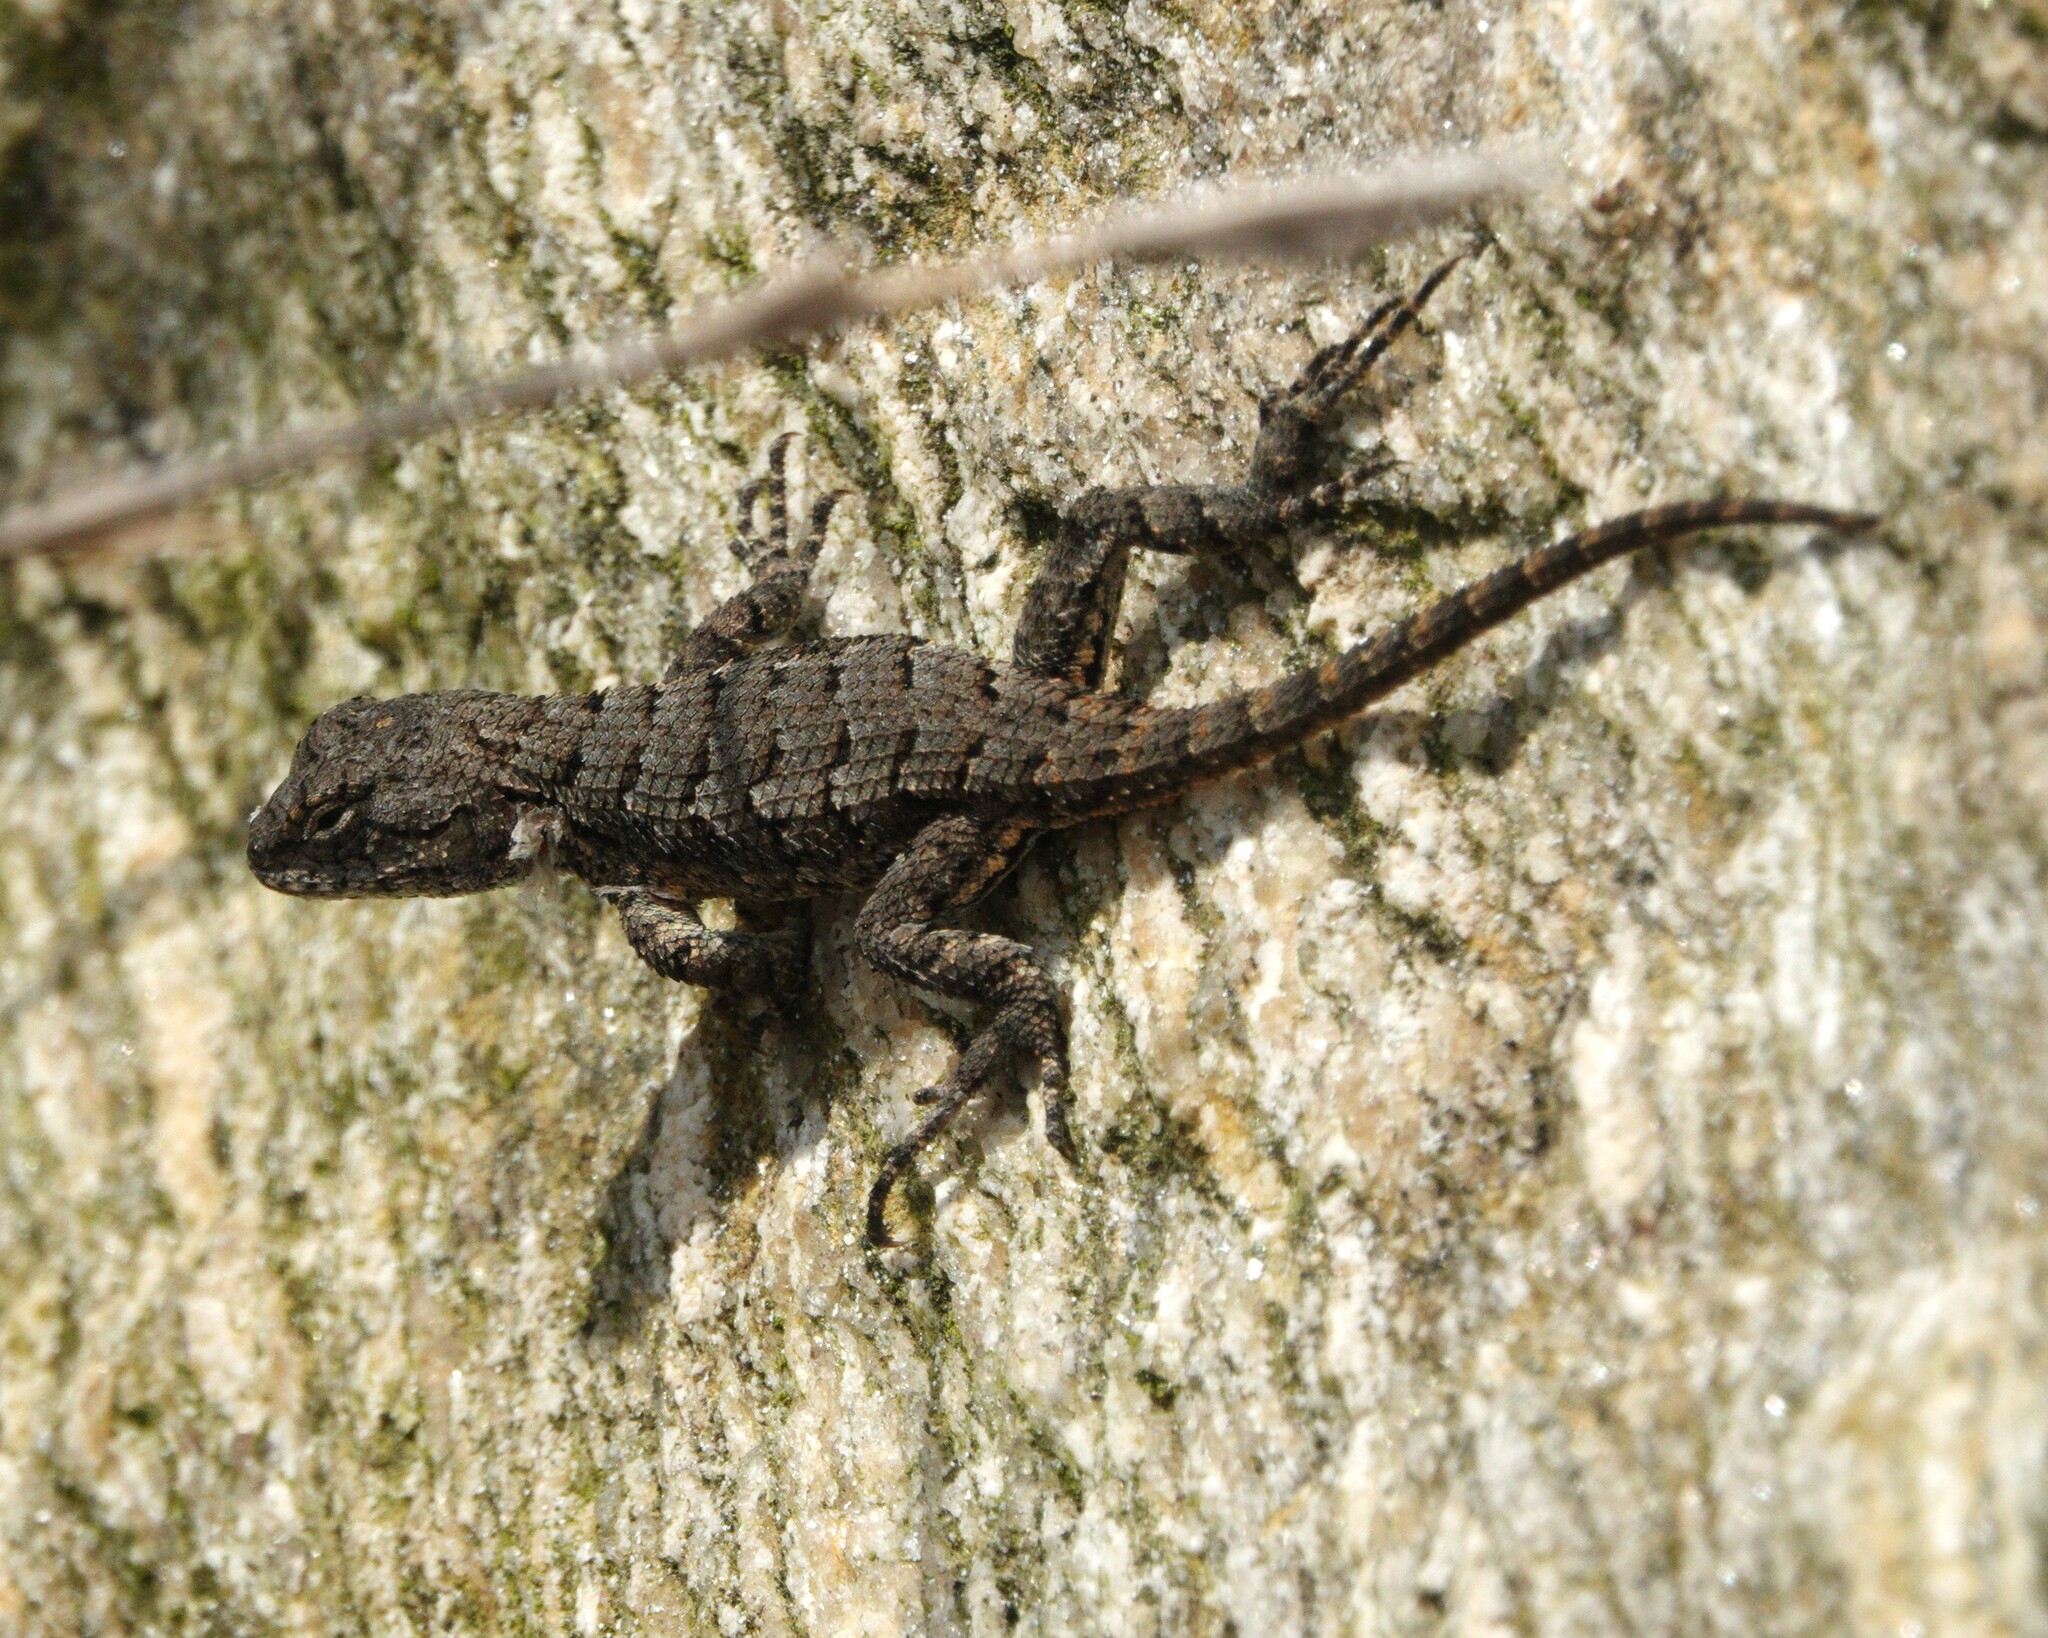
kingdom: Animalia
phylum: Chordata
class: Squamata
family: Phrynosomatidae
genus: Sceloporus
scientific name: Sceloporus undulatus
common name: Eastern fence lizard
